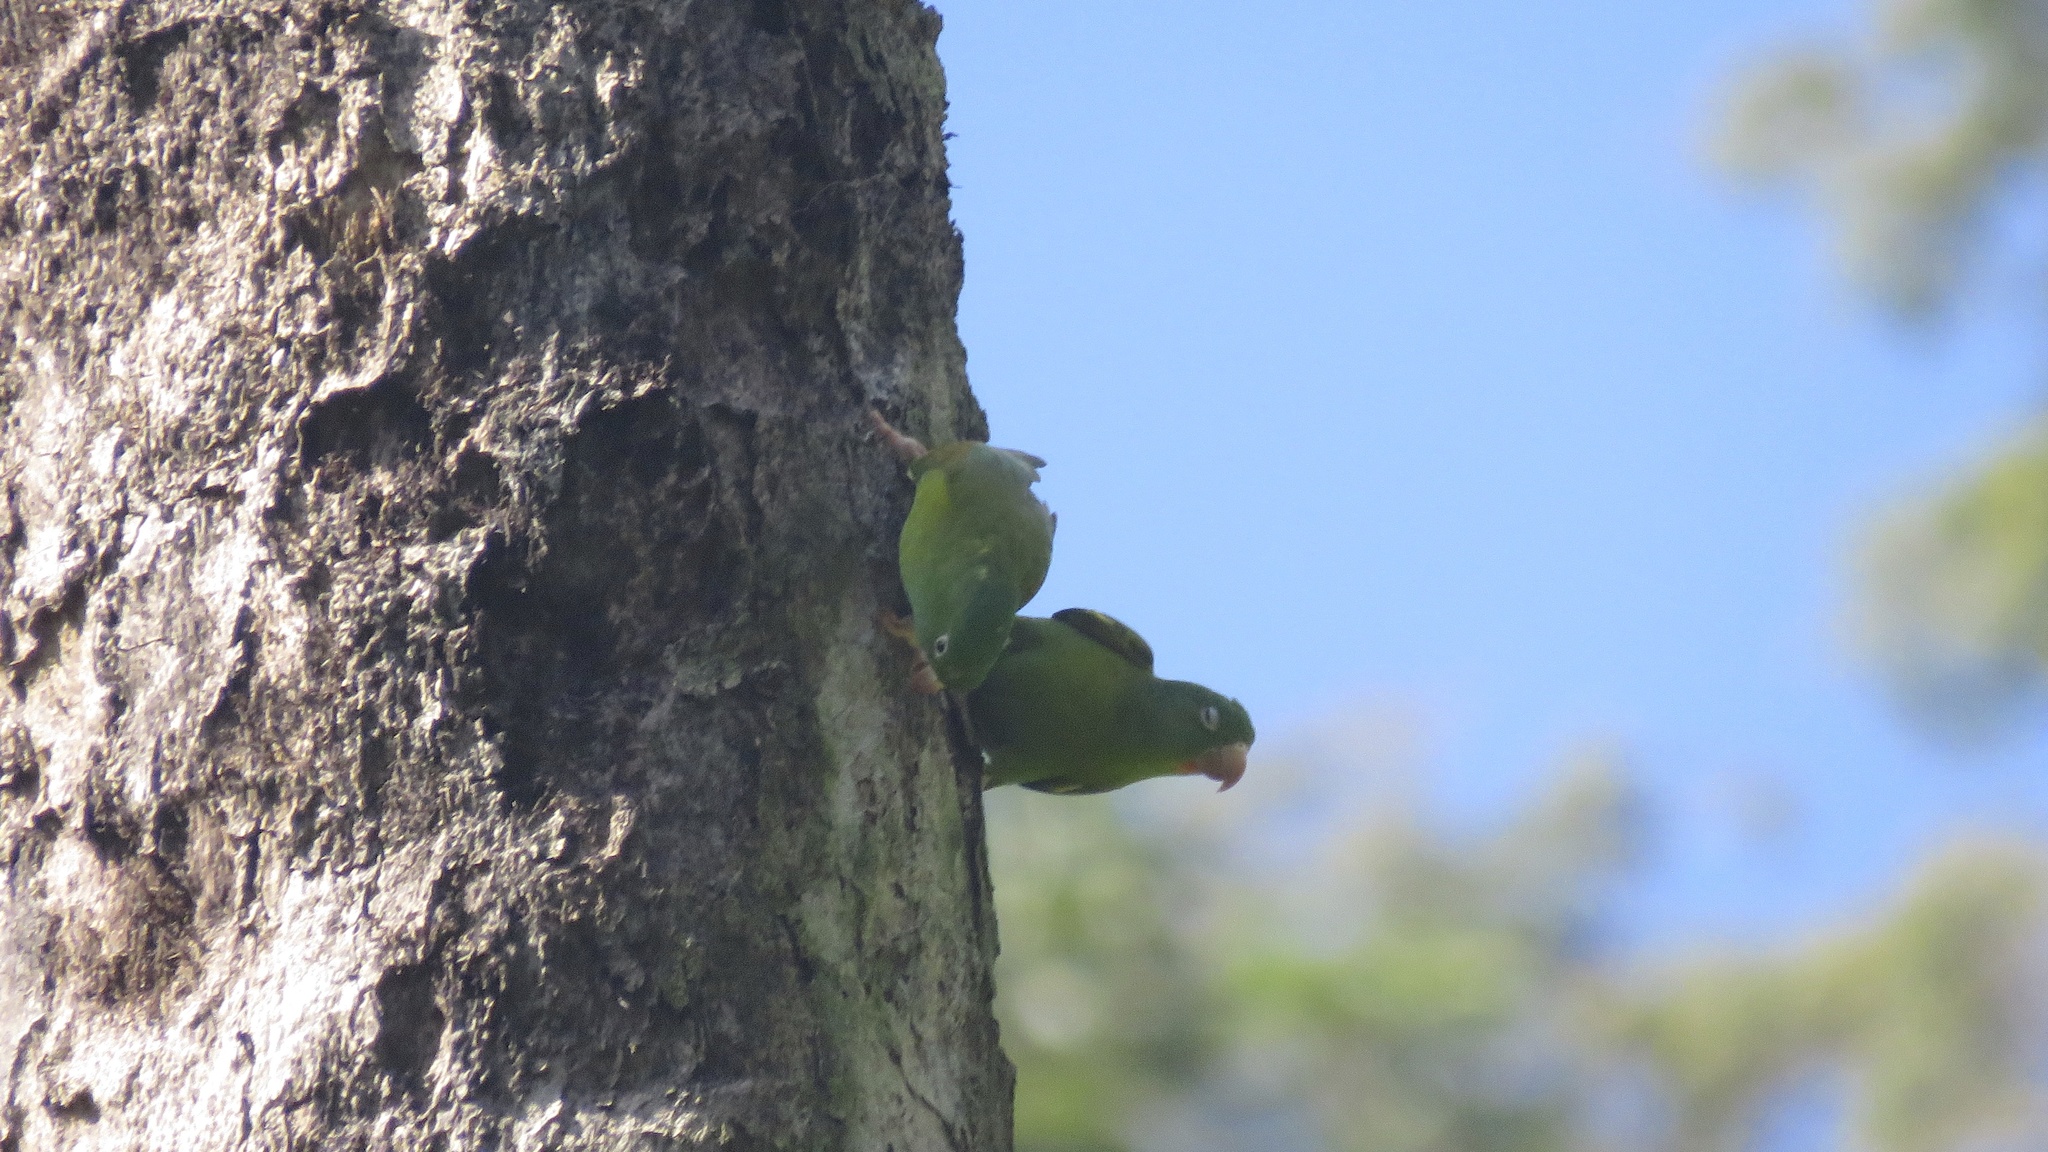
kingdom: Animalia
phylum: Chordata
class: Aves
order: Psittaciformes
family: Psittacidae
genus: Brotogeris
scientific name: Brotogeris jugularis
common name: Orange-chinned parakeet
